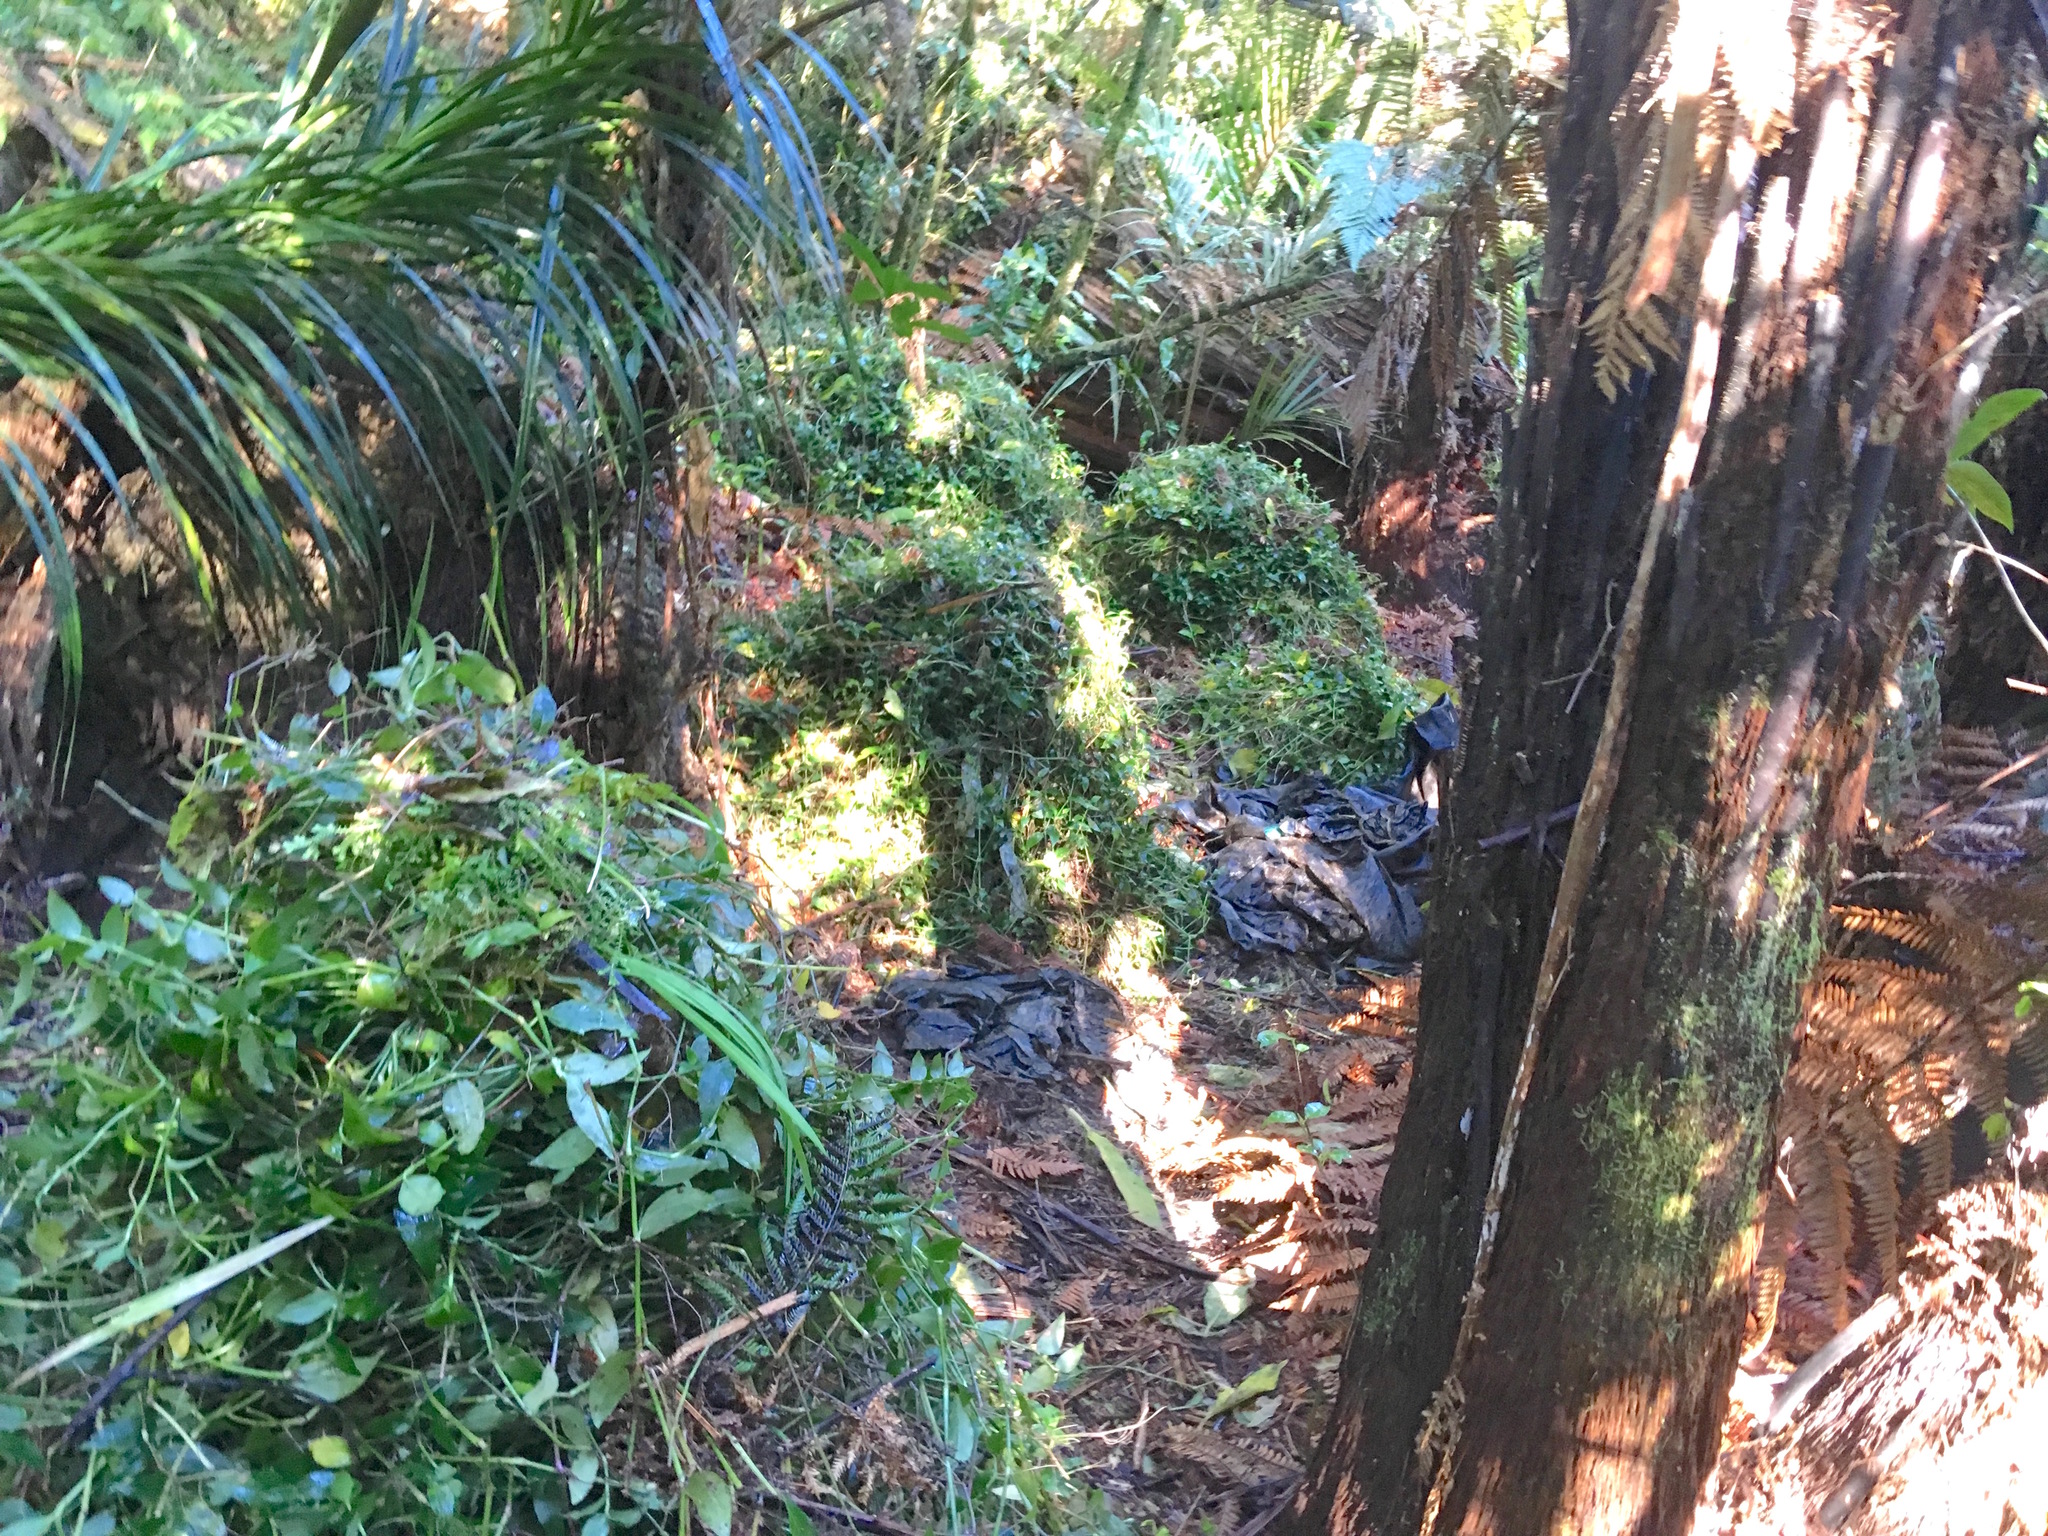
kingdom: Plantae
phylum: Tracheophyta
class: Liliopsida
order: Commelinales
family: Commelinaceae
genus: Tradescantia
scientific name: Tradescantia fluminensis
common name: Wandering-jew
